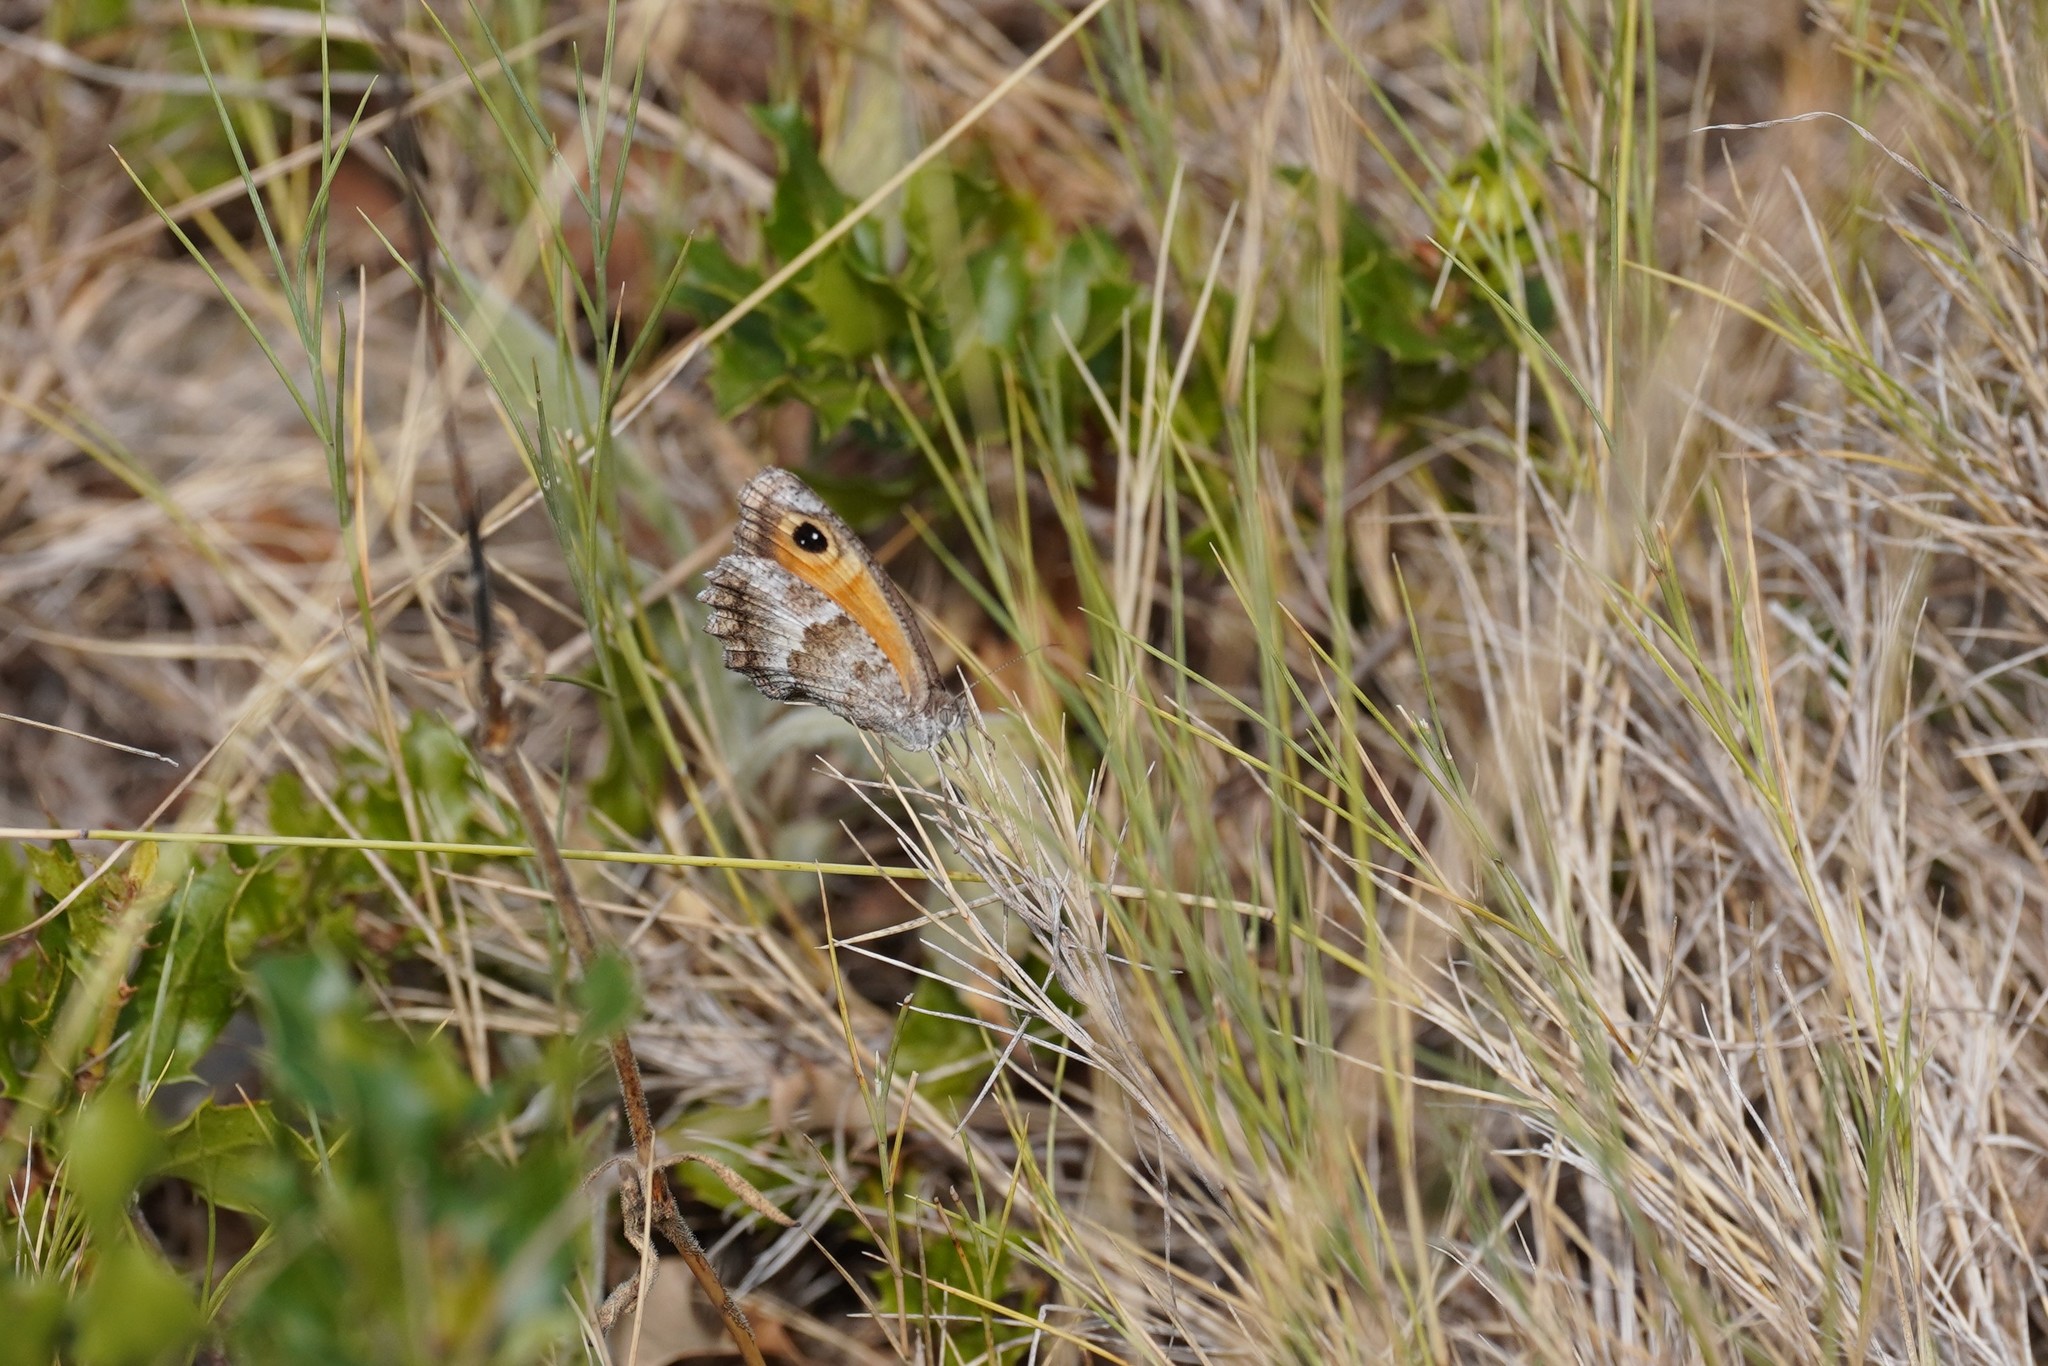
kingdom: Animalia
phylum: Arthropoda
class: Insecta
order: Lepidoptera
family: Nymphalidae
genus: Pyronia
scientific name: Pyronia cecilia
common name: Southern gatekeeper
